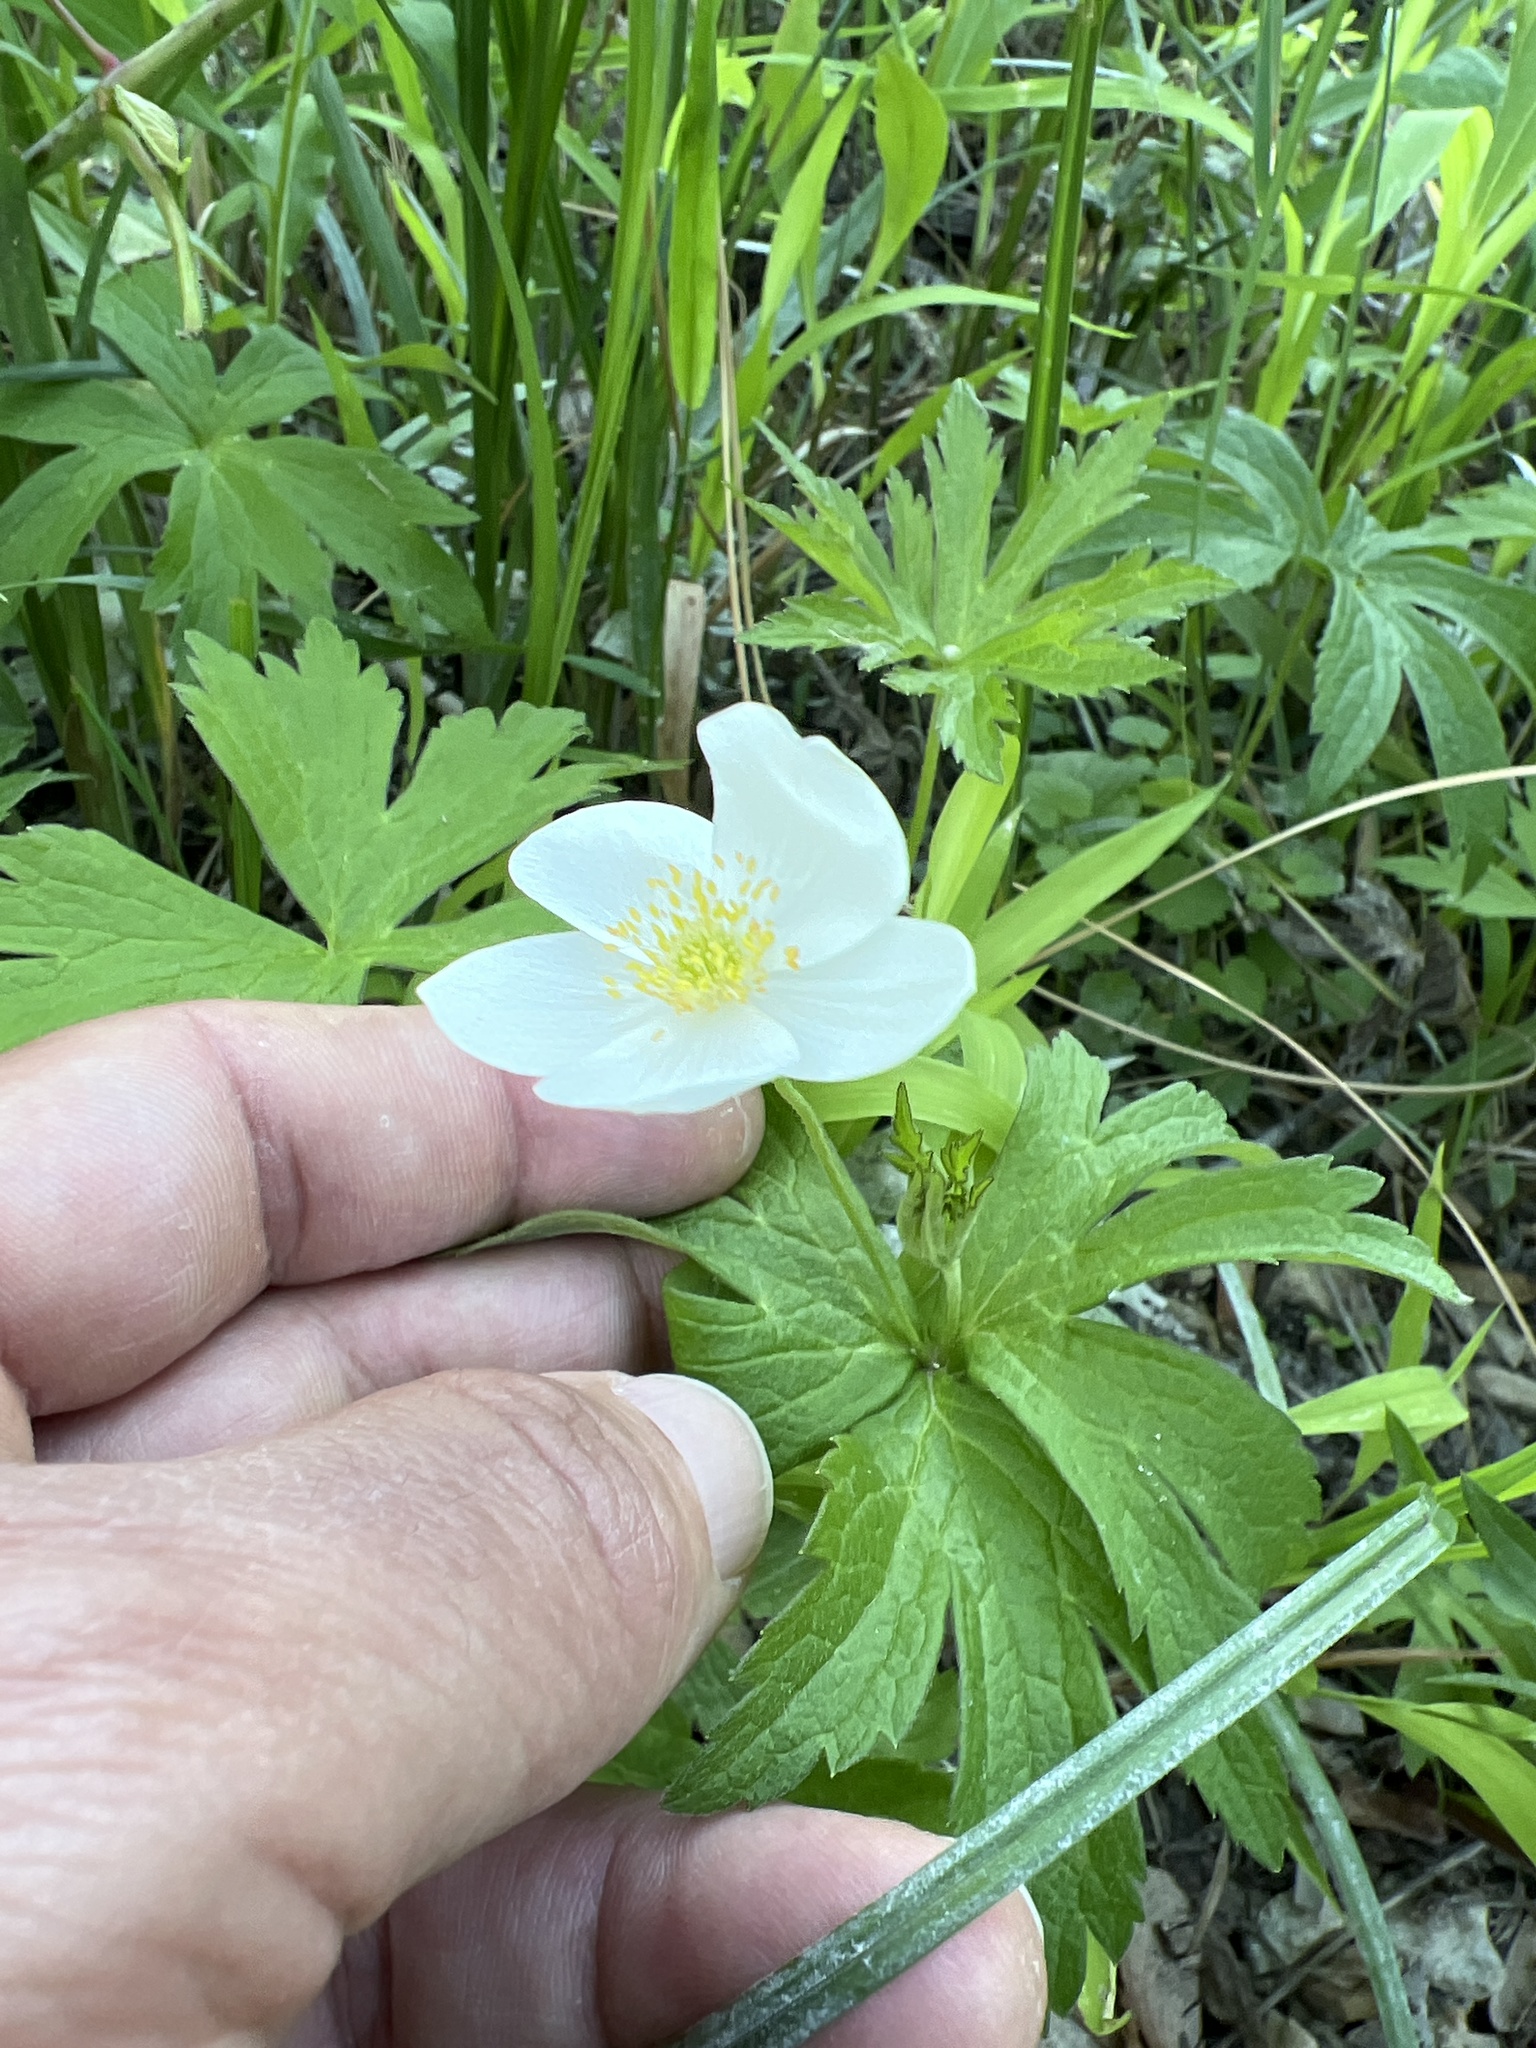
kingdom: Plantae
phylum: Tracheophyta
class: Magnoliopsida
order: Ranunculales
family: Ranunculaceae
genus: Anemonastrum
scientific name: Anemonastrum canadense
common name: Canada anemone
